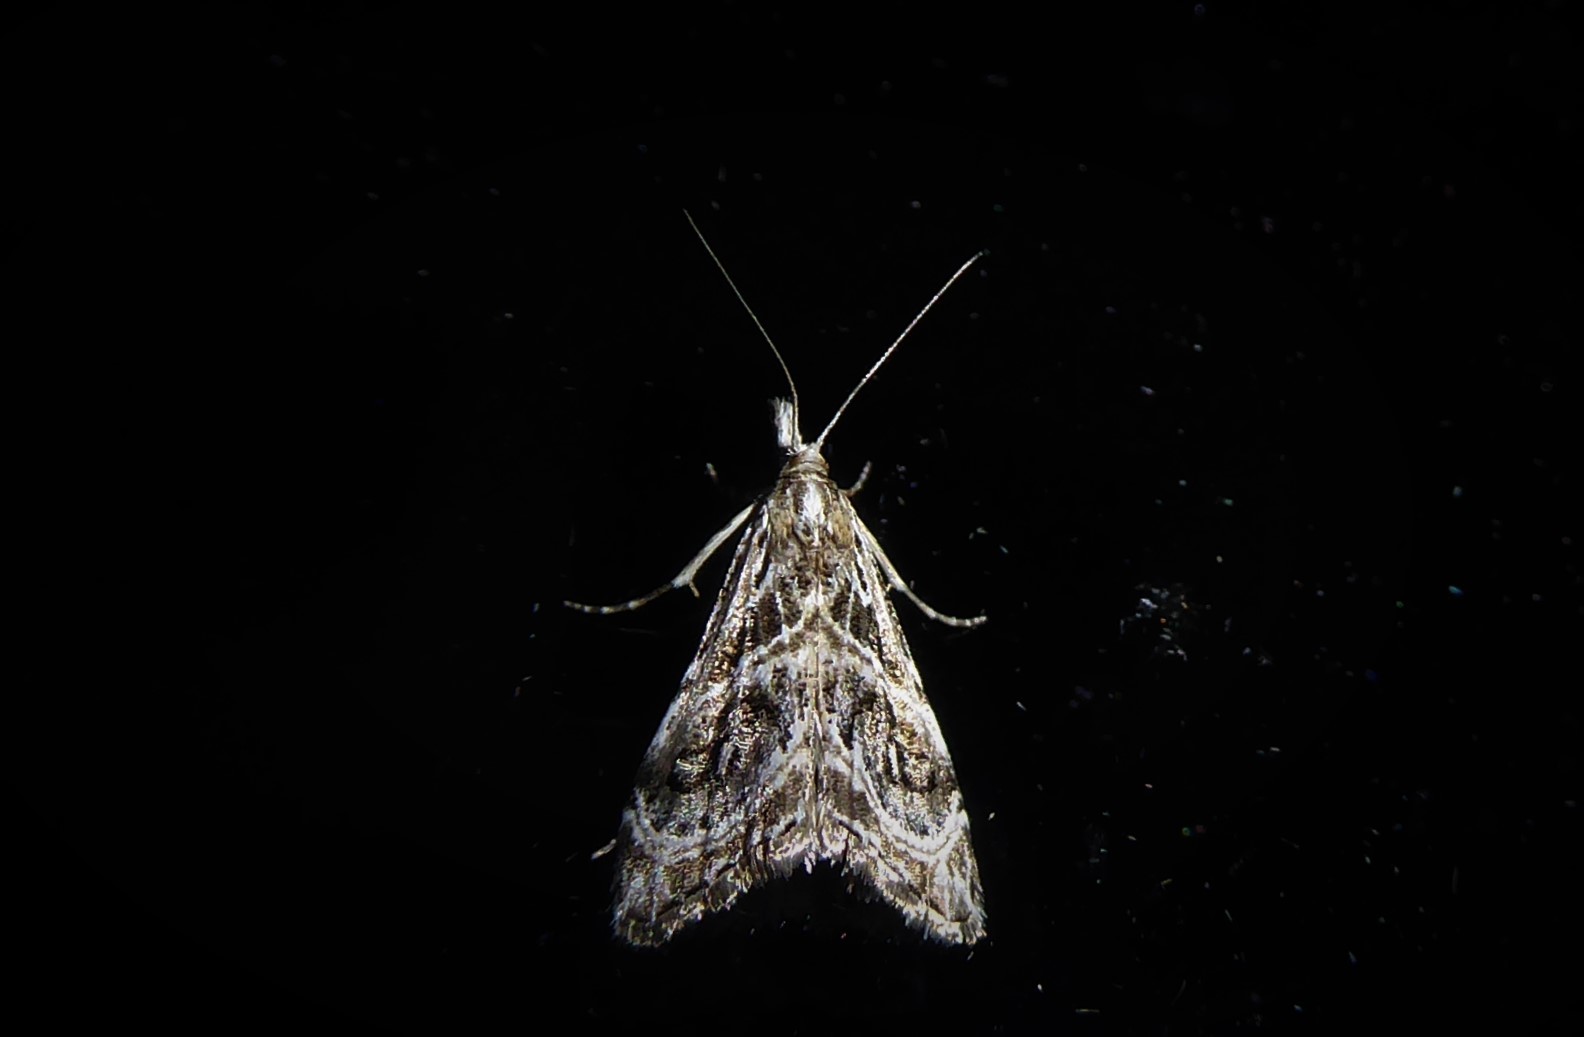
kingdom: Animalia
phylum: Arthropoda
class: Insecta
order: Lepidoptera
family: Crambidae
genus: Gadira
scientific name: Gadira acerella
